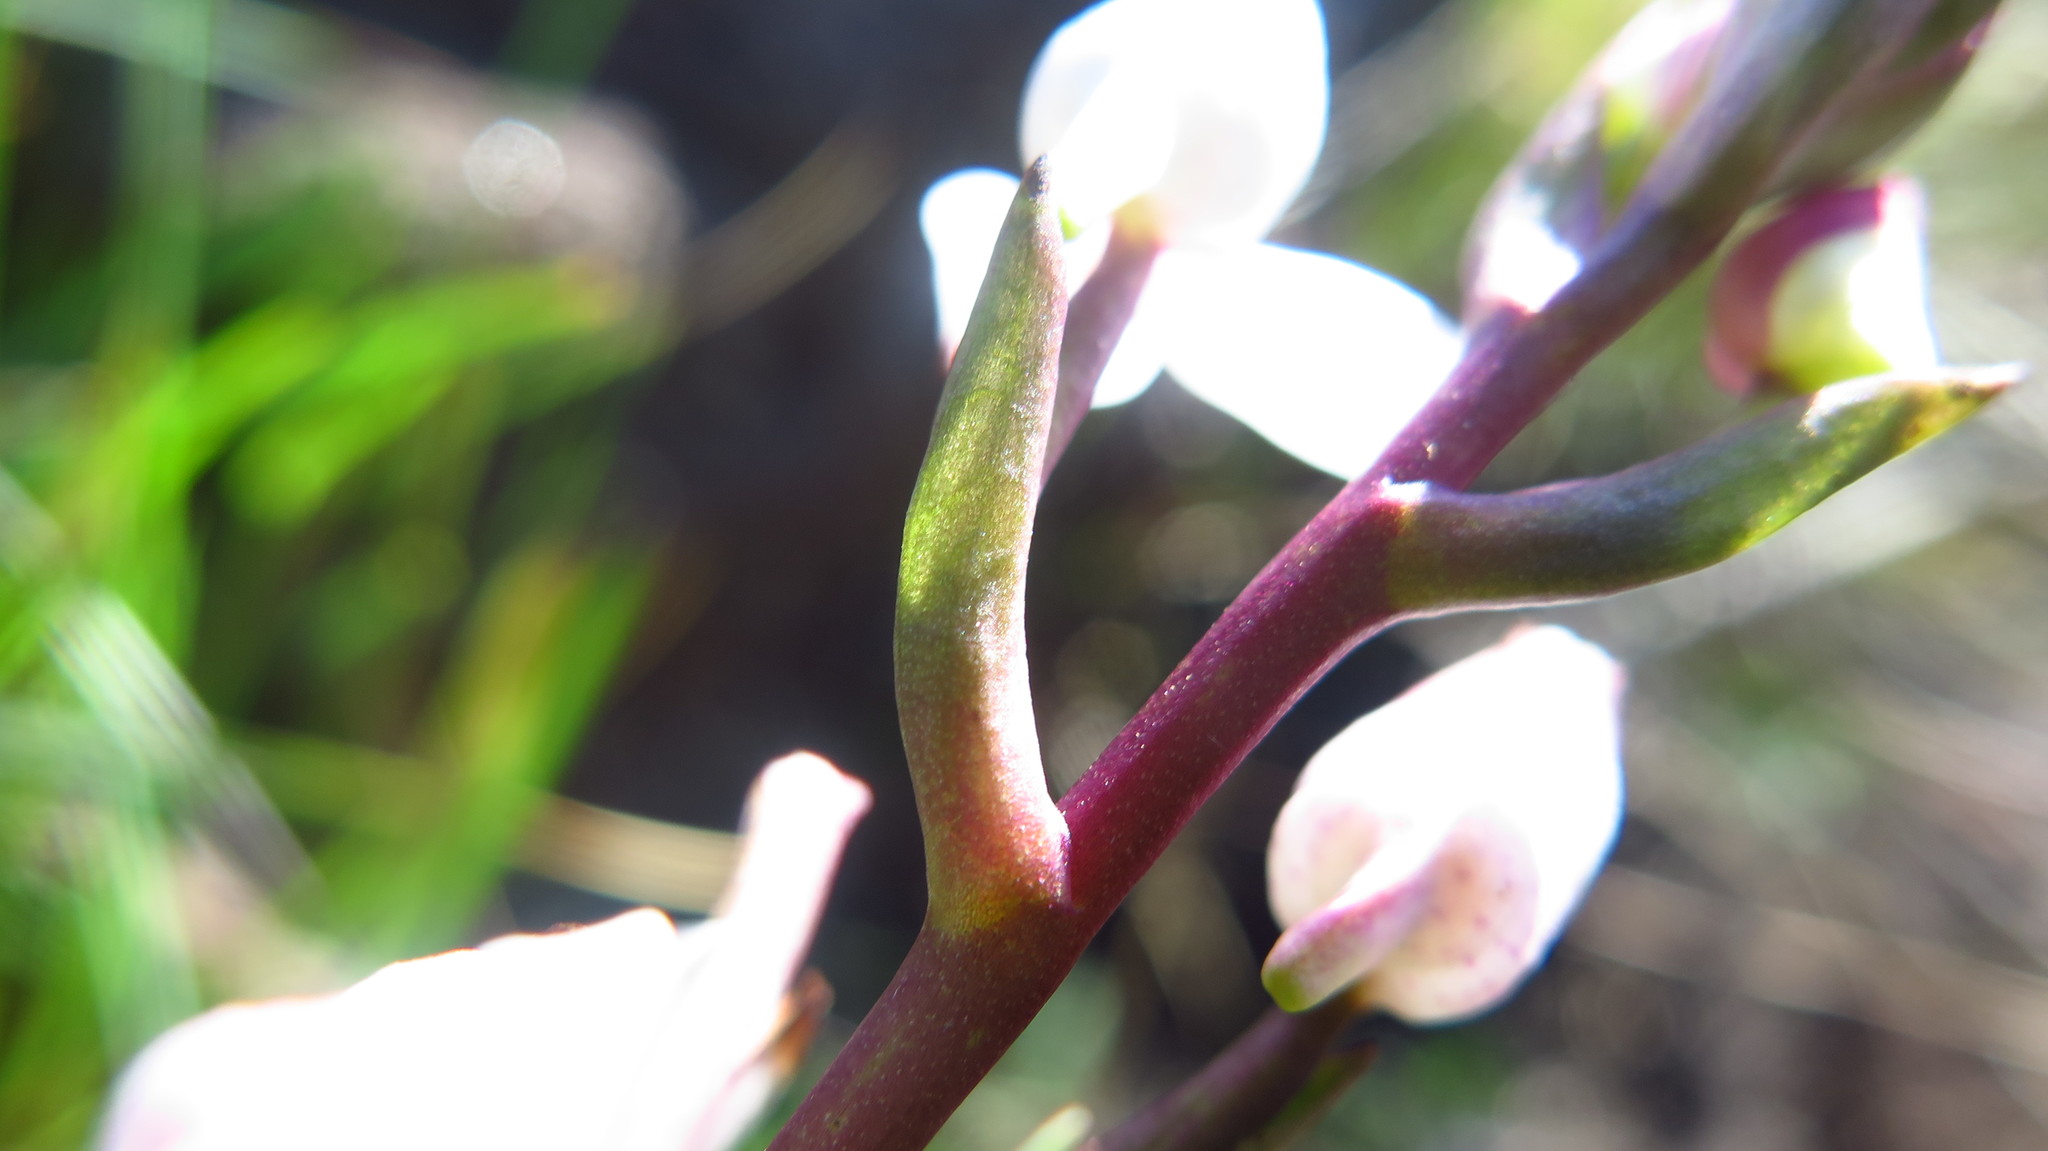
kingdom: Plantae
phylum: Tracheophyta
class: Liliopsida
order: Asparagales
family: Orchidaceae
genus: Disa
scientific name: Disa tripetaloides
